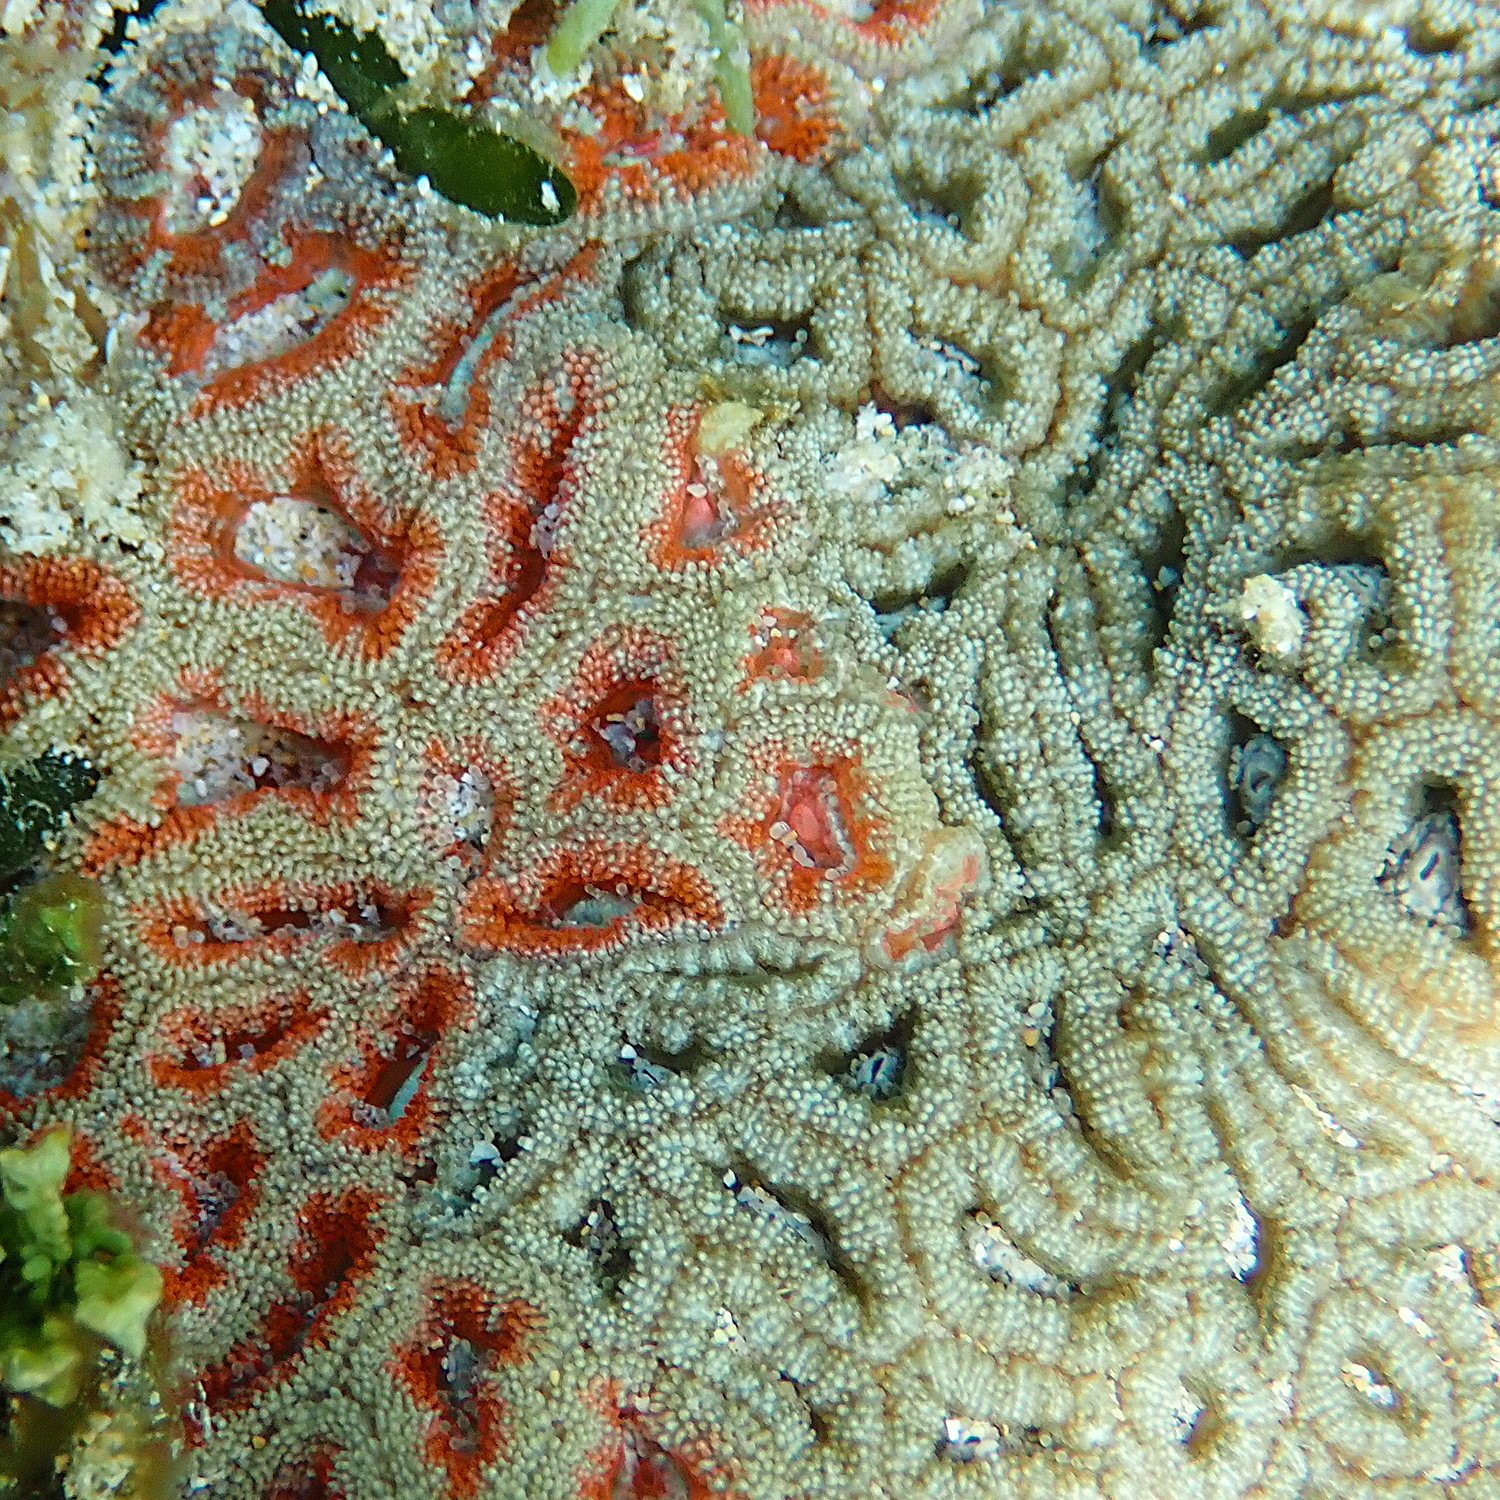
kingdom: Animalia
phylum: Cnidaria
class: Anthozoa
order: Scleractinia
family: Lobophylliidae
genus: Micromussa
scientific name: Micromussa lordhowensis
